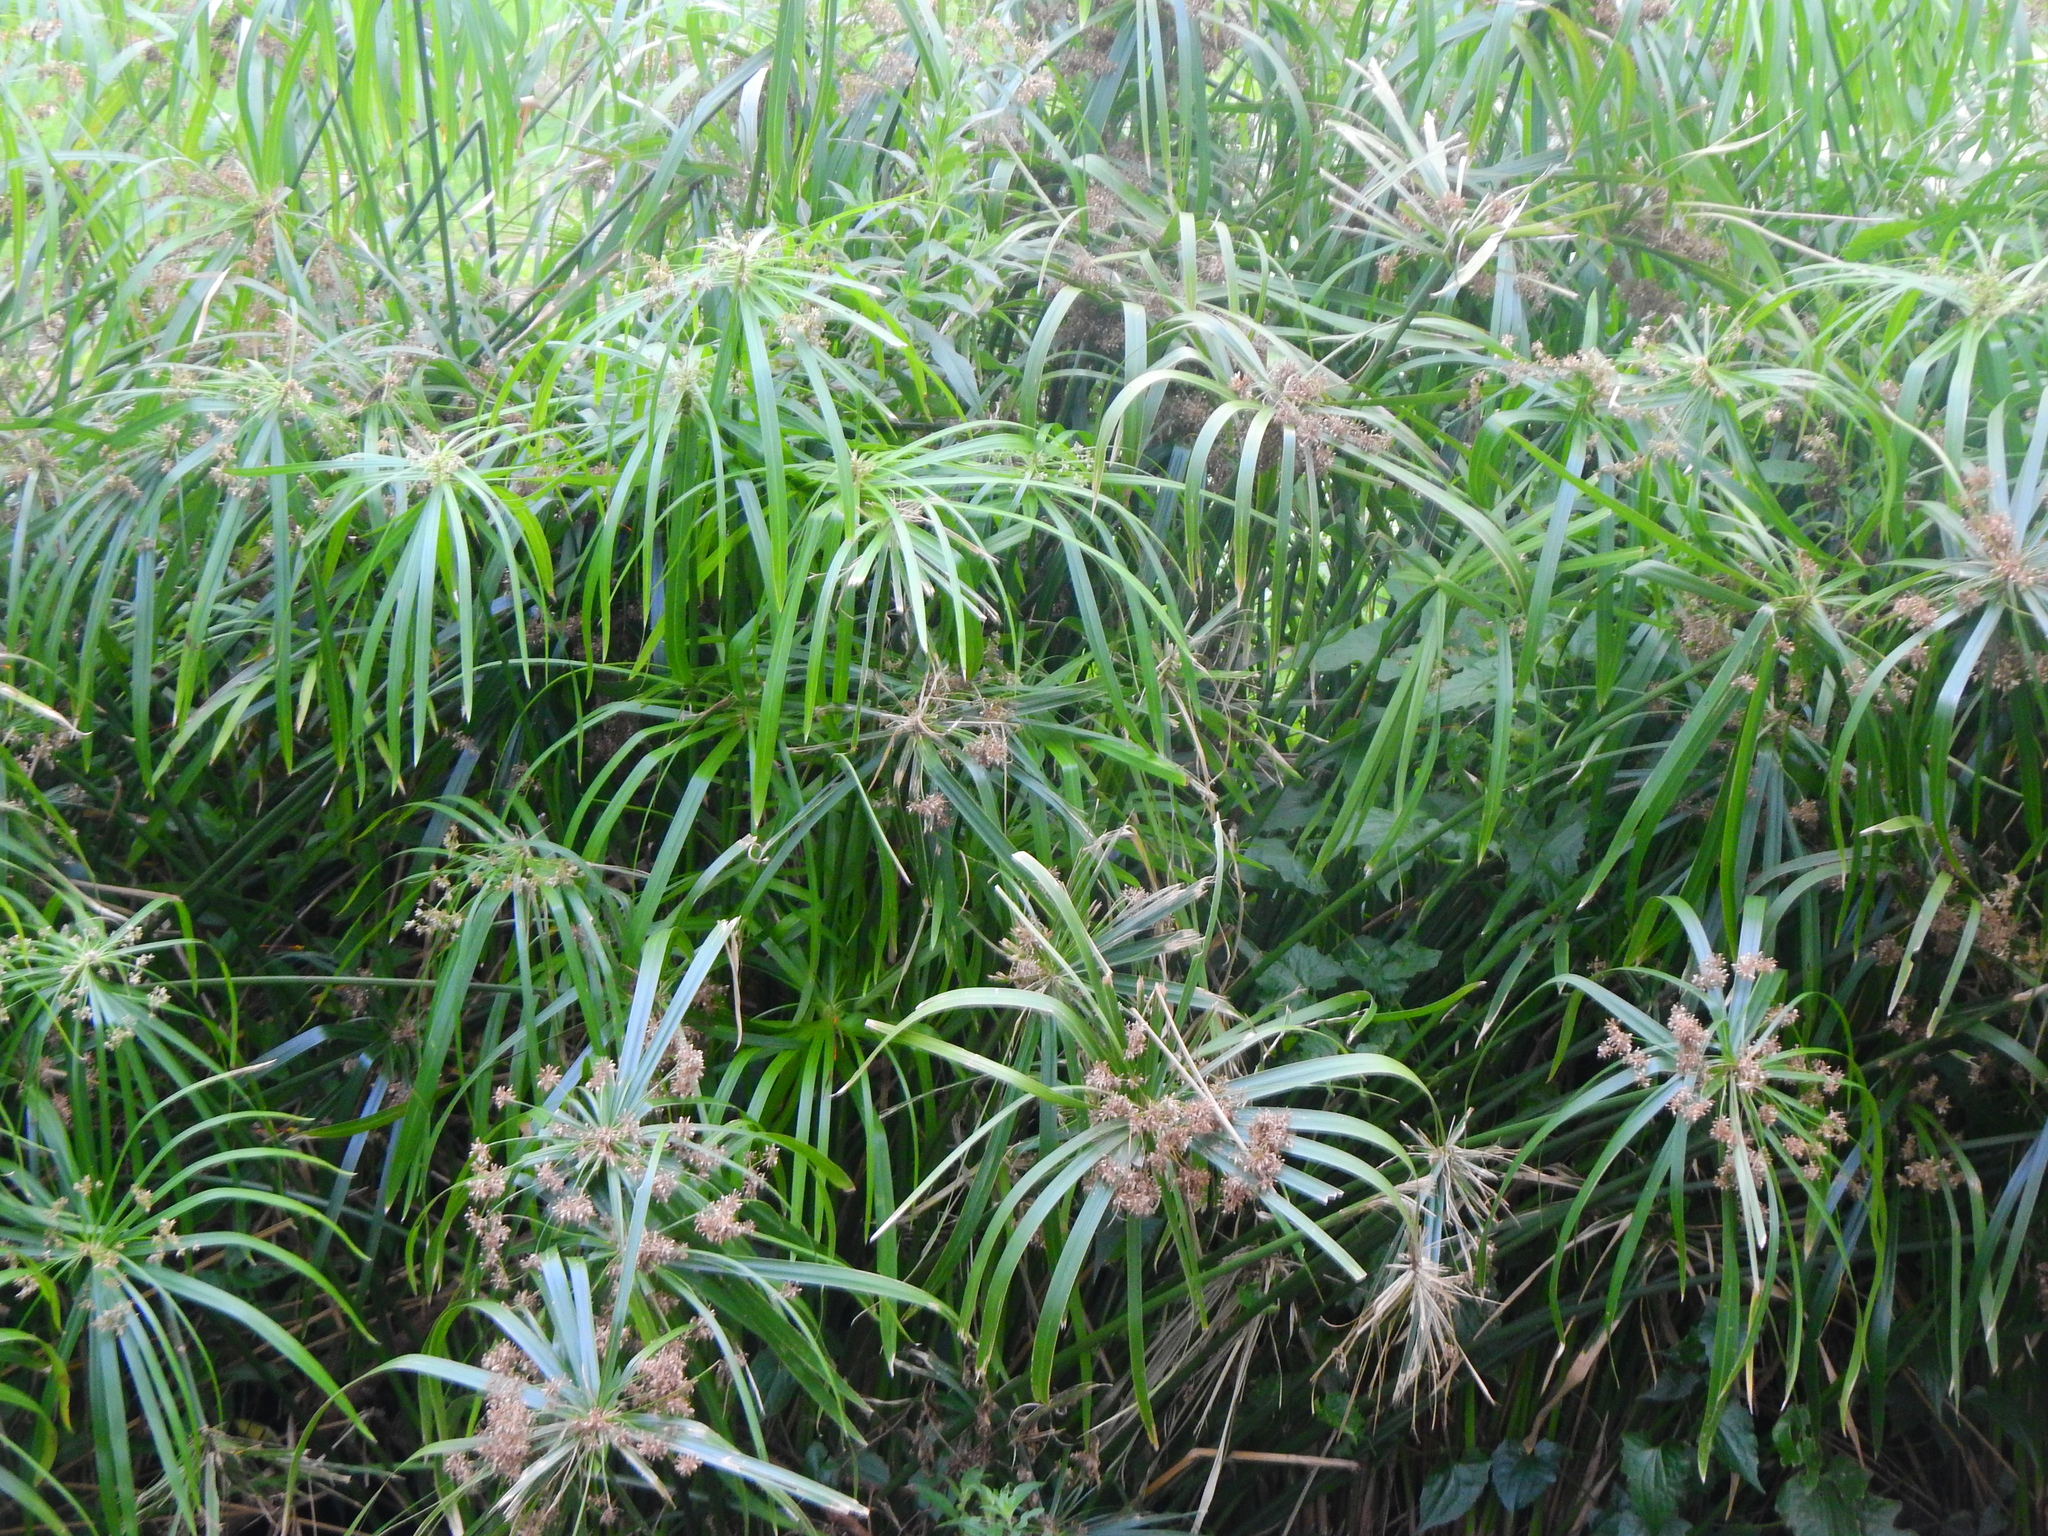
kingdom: Plantae
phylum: Tracheophyta
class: Liliopsida
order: Poales
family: Cyperaceae
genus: Cyperus
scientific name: Cyperus alternifolius
